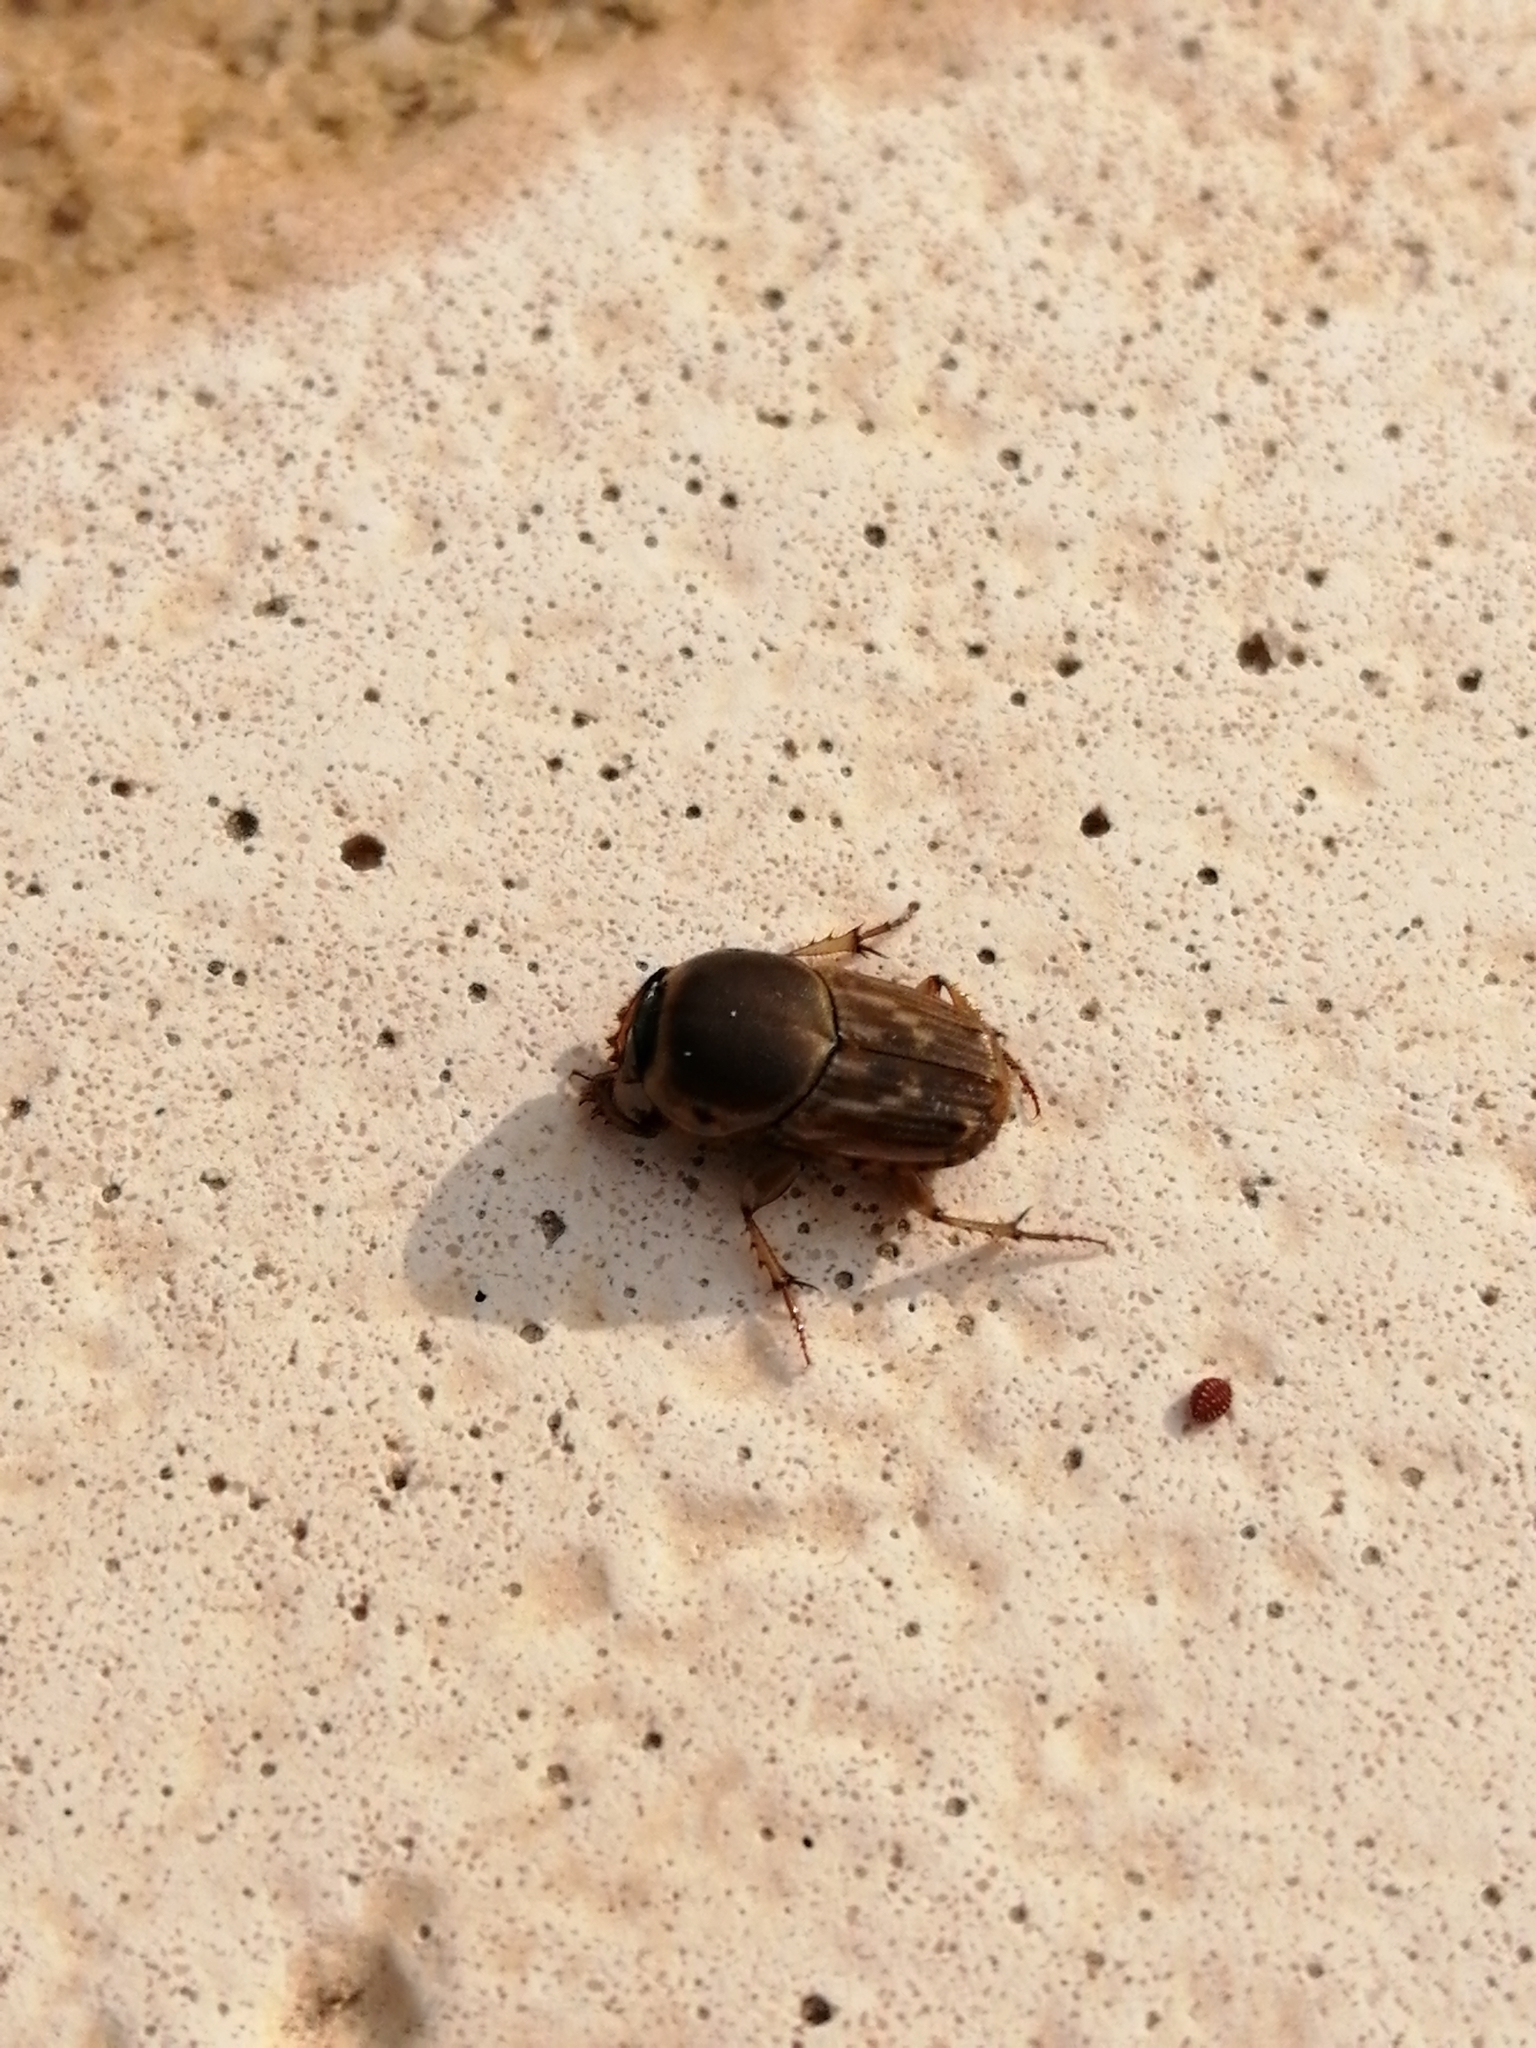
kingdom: Animalia
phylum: Arthropoda
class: Insecta
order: Coleoptera
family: Scarabaeidae
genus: Euoniticellus
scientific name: Euoniticellus fulvus
